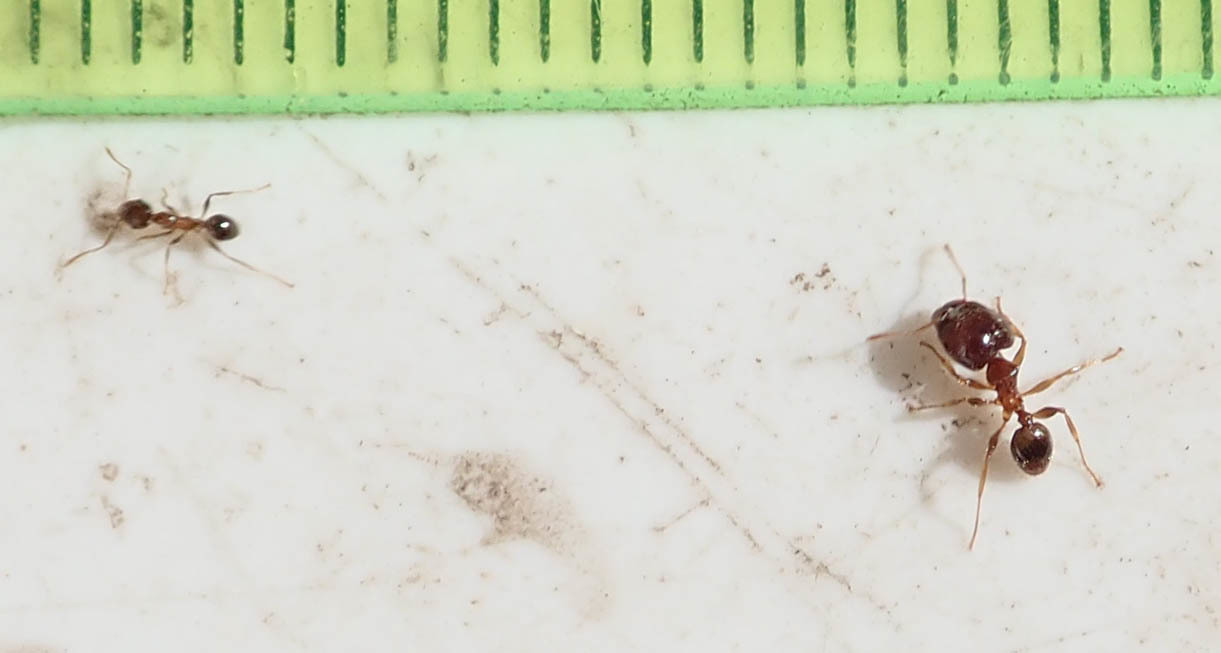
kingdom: Animalia
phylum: Arthropoda
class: Insecta
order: Hymenoptera
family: Formicidae
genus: Pheidole
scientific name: Pheidole megacephala
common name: Bigheaded ant
